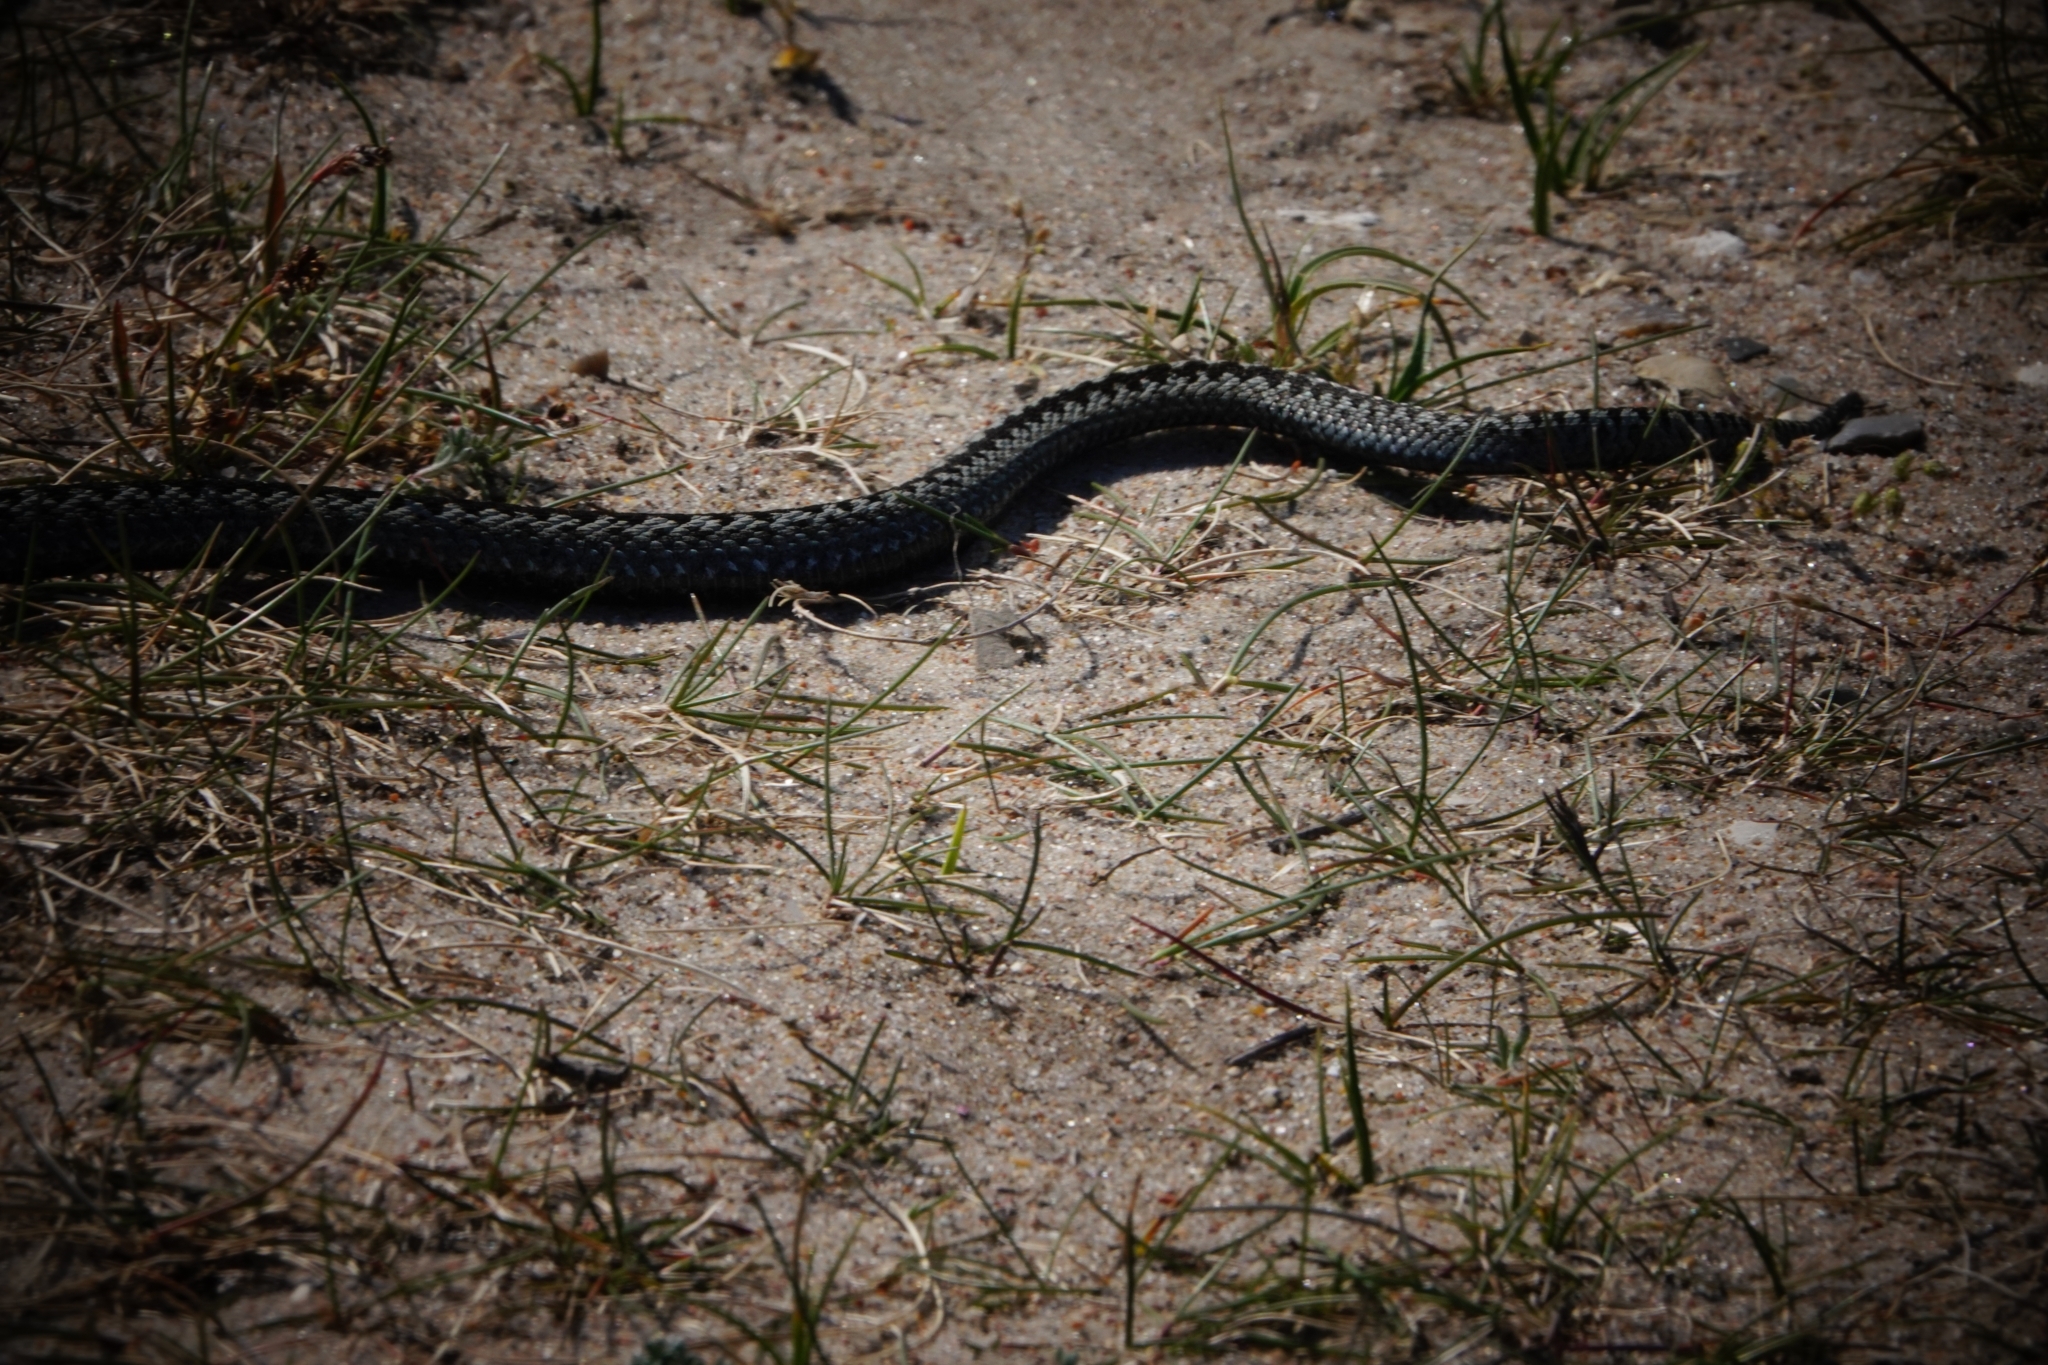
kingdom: Animalia
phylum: Chordata
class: Squamata
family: Viperidae
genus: Vipera
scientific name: Vipera berus
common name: Adder
